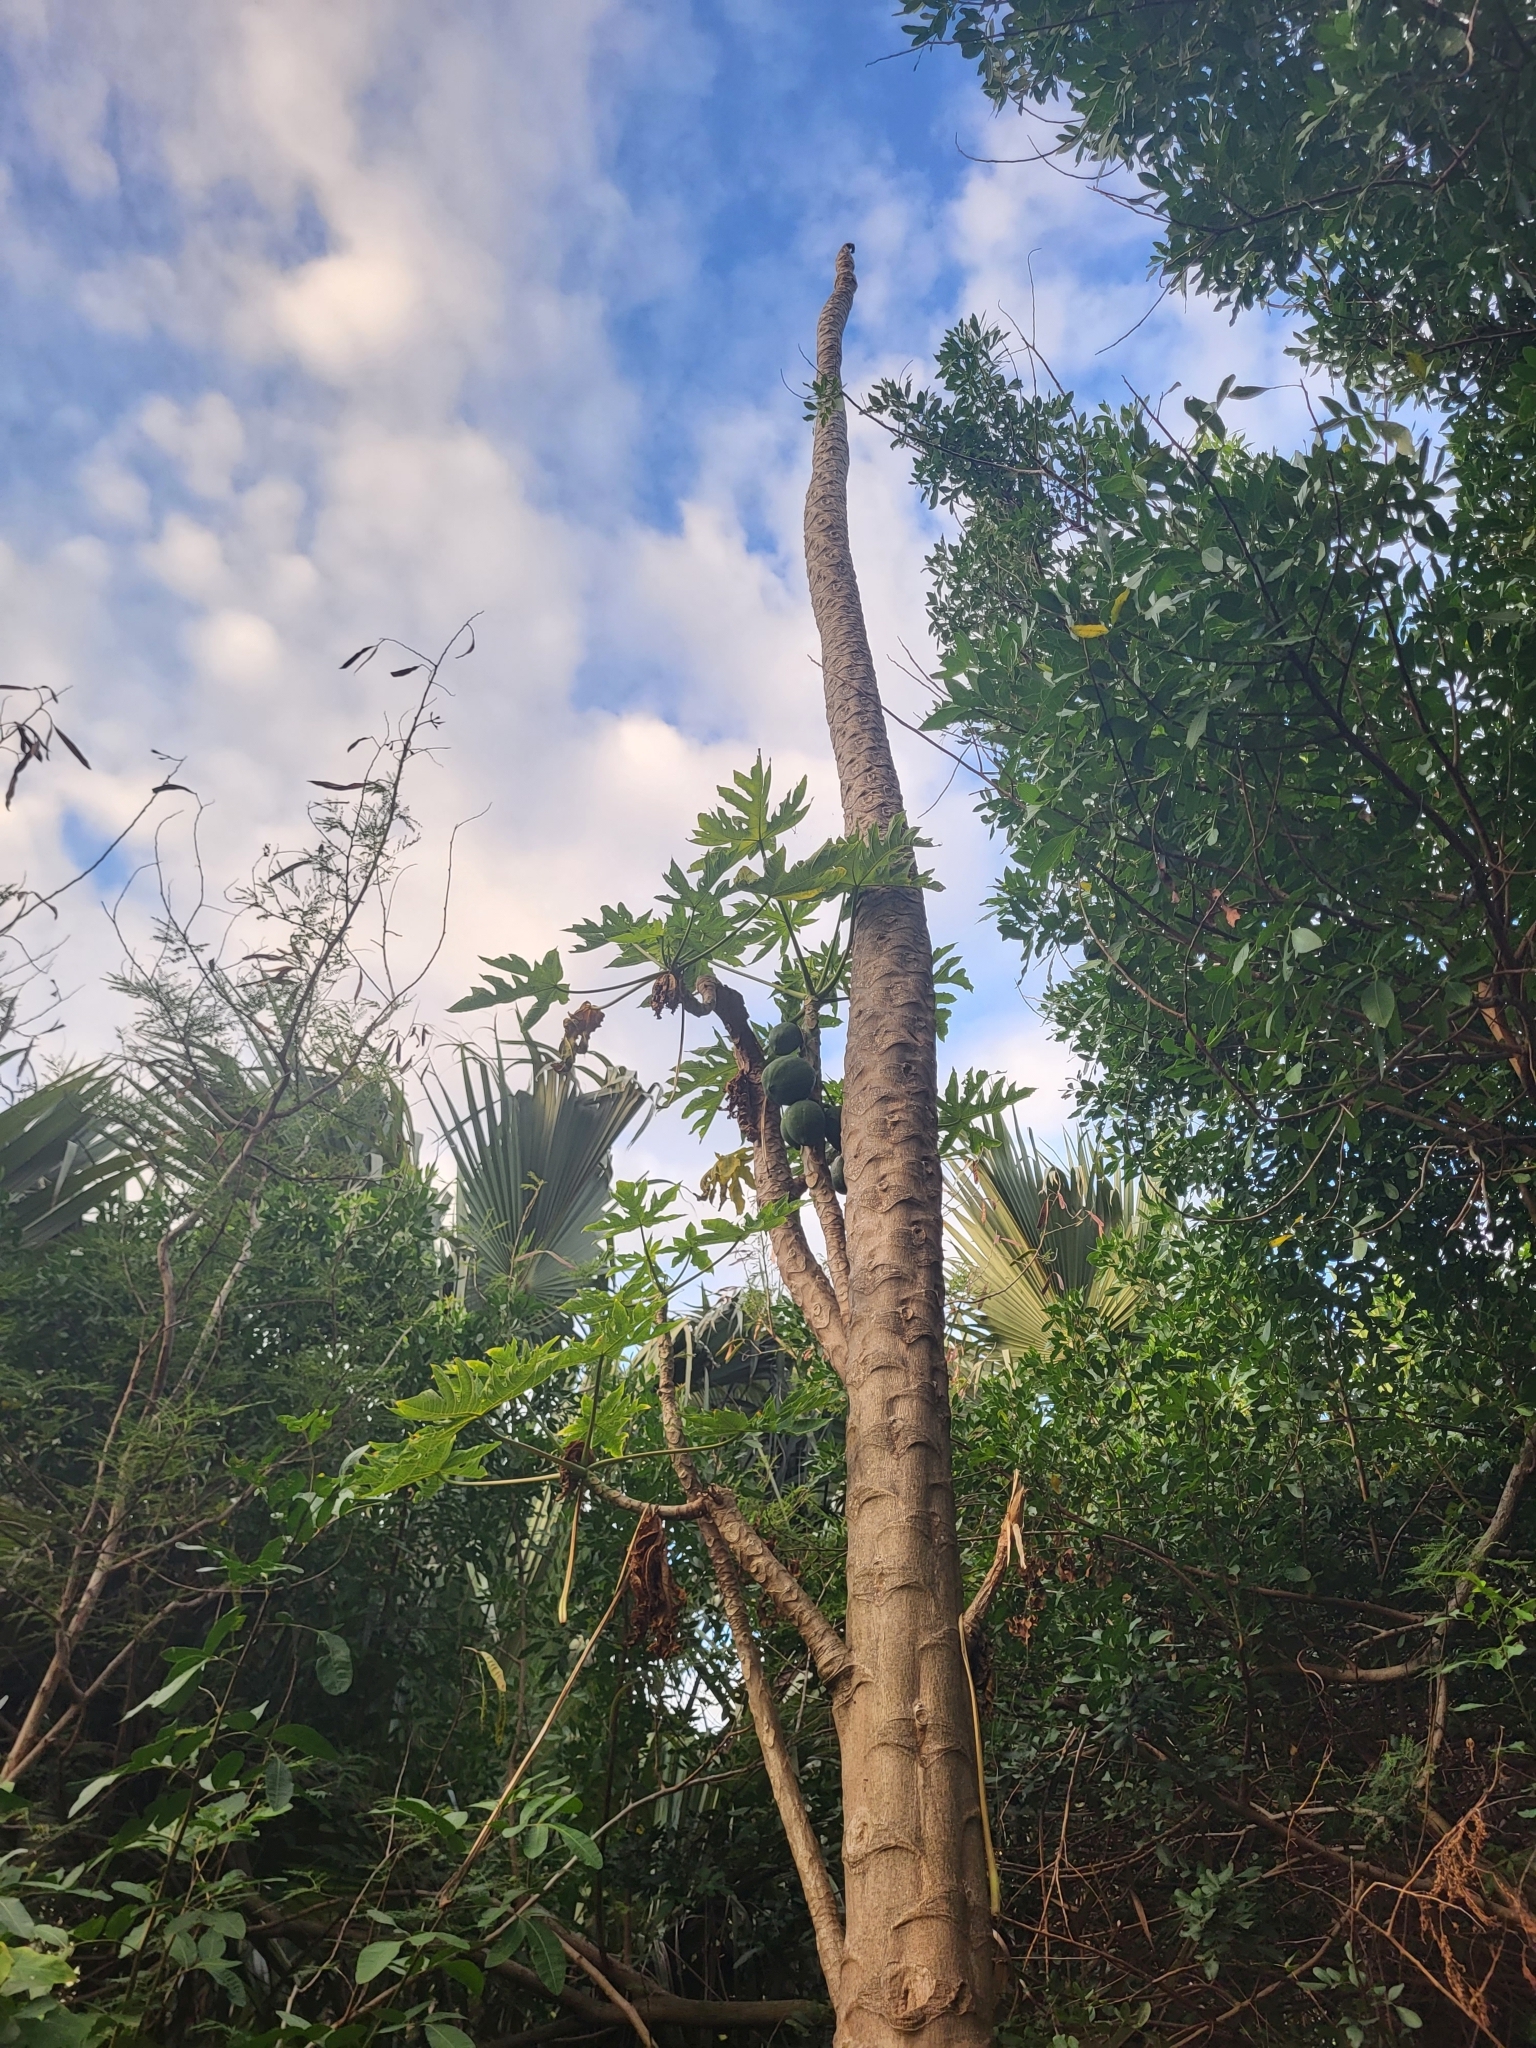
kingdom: Plantae
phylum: Tracheophyta
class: Magnoliopsida
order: Brassicales
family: Caricaceae
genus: Carica
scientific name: Carica papaya
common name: Papaya
